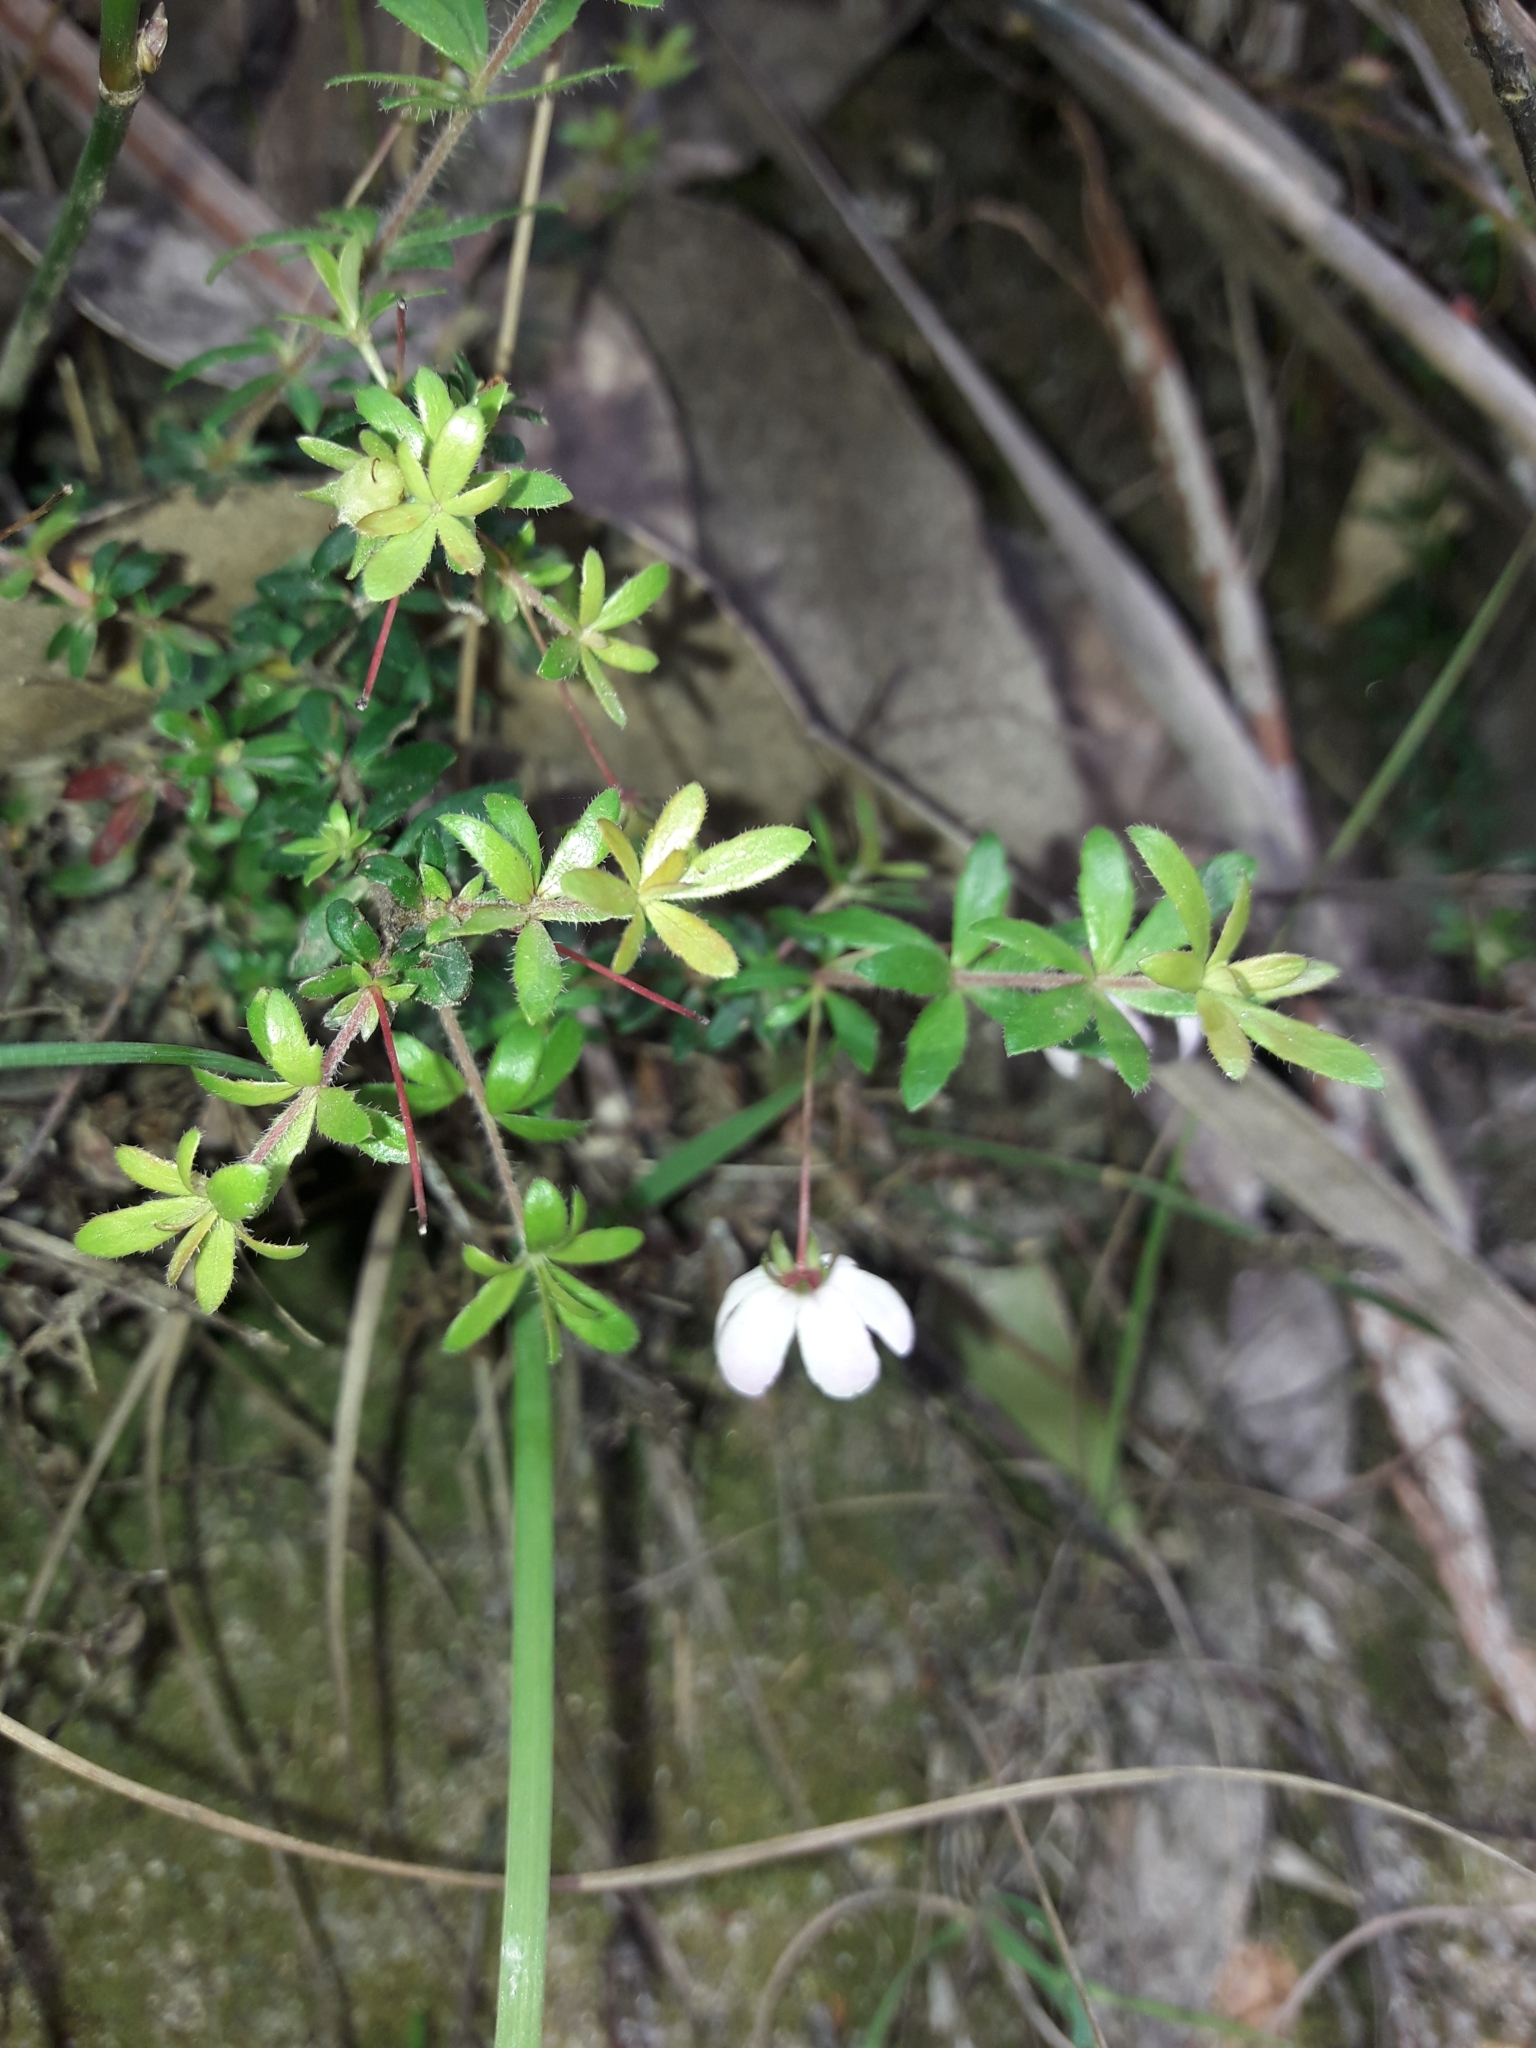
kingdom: Plantae
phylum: Tracheophyta
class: Magnoliopsida
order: Oxalidales
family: Cunoniaceae
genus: Bauera
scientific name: Bauera rubioides
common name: River-rose
